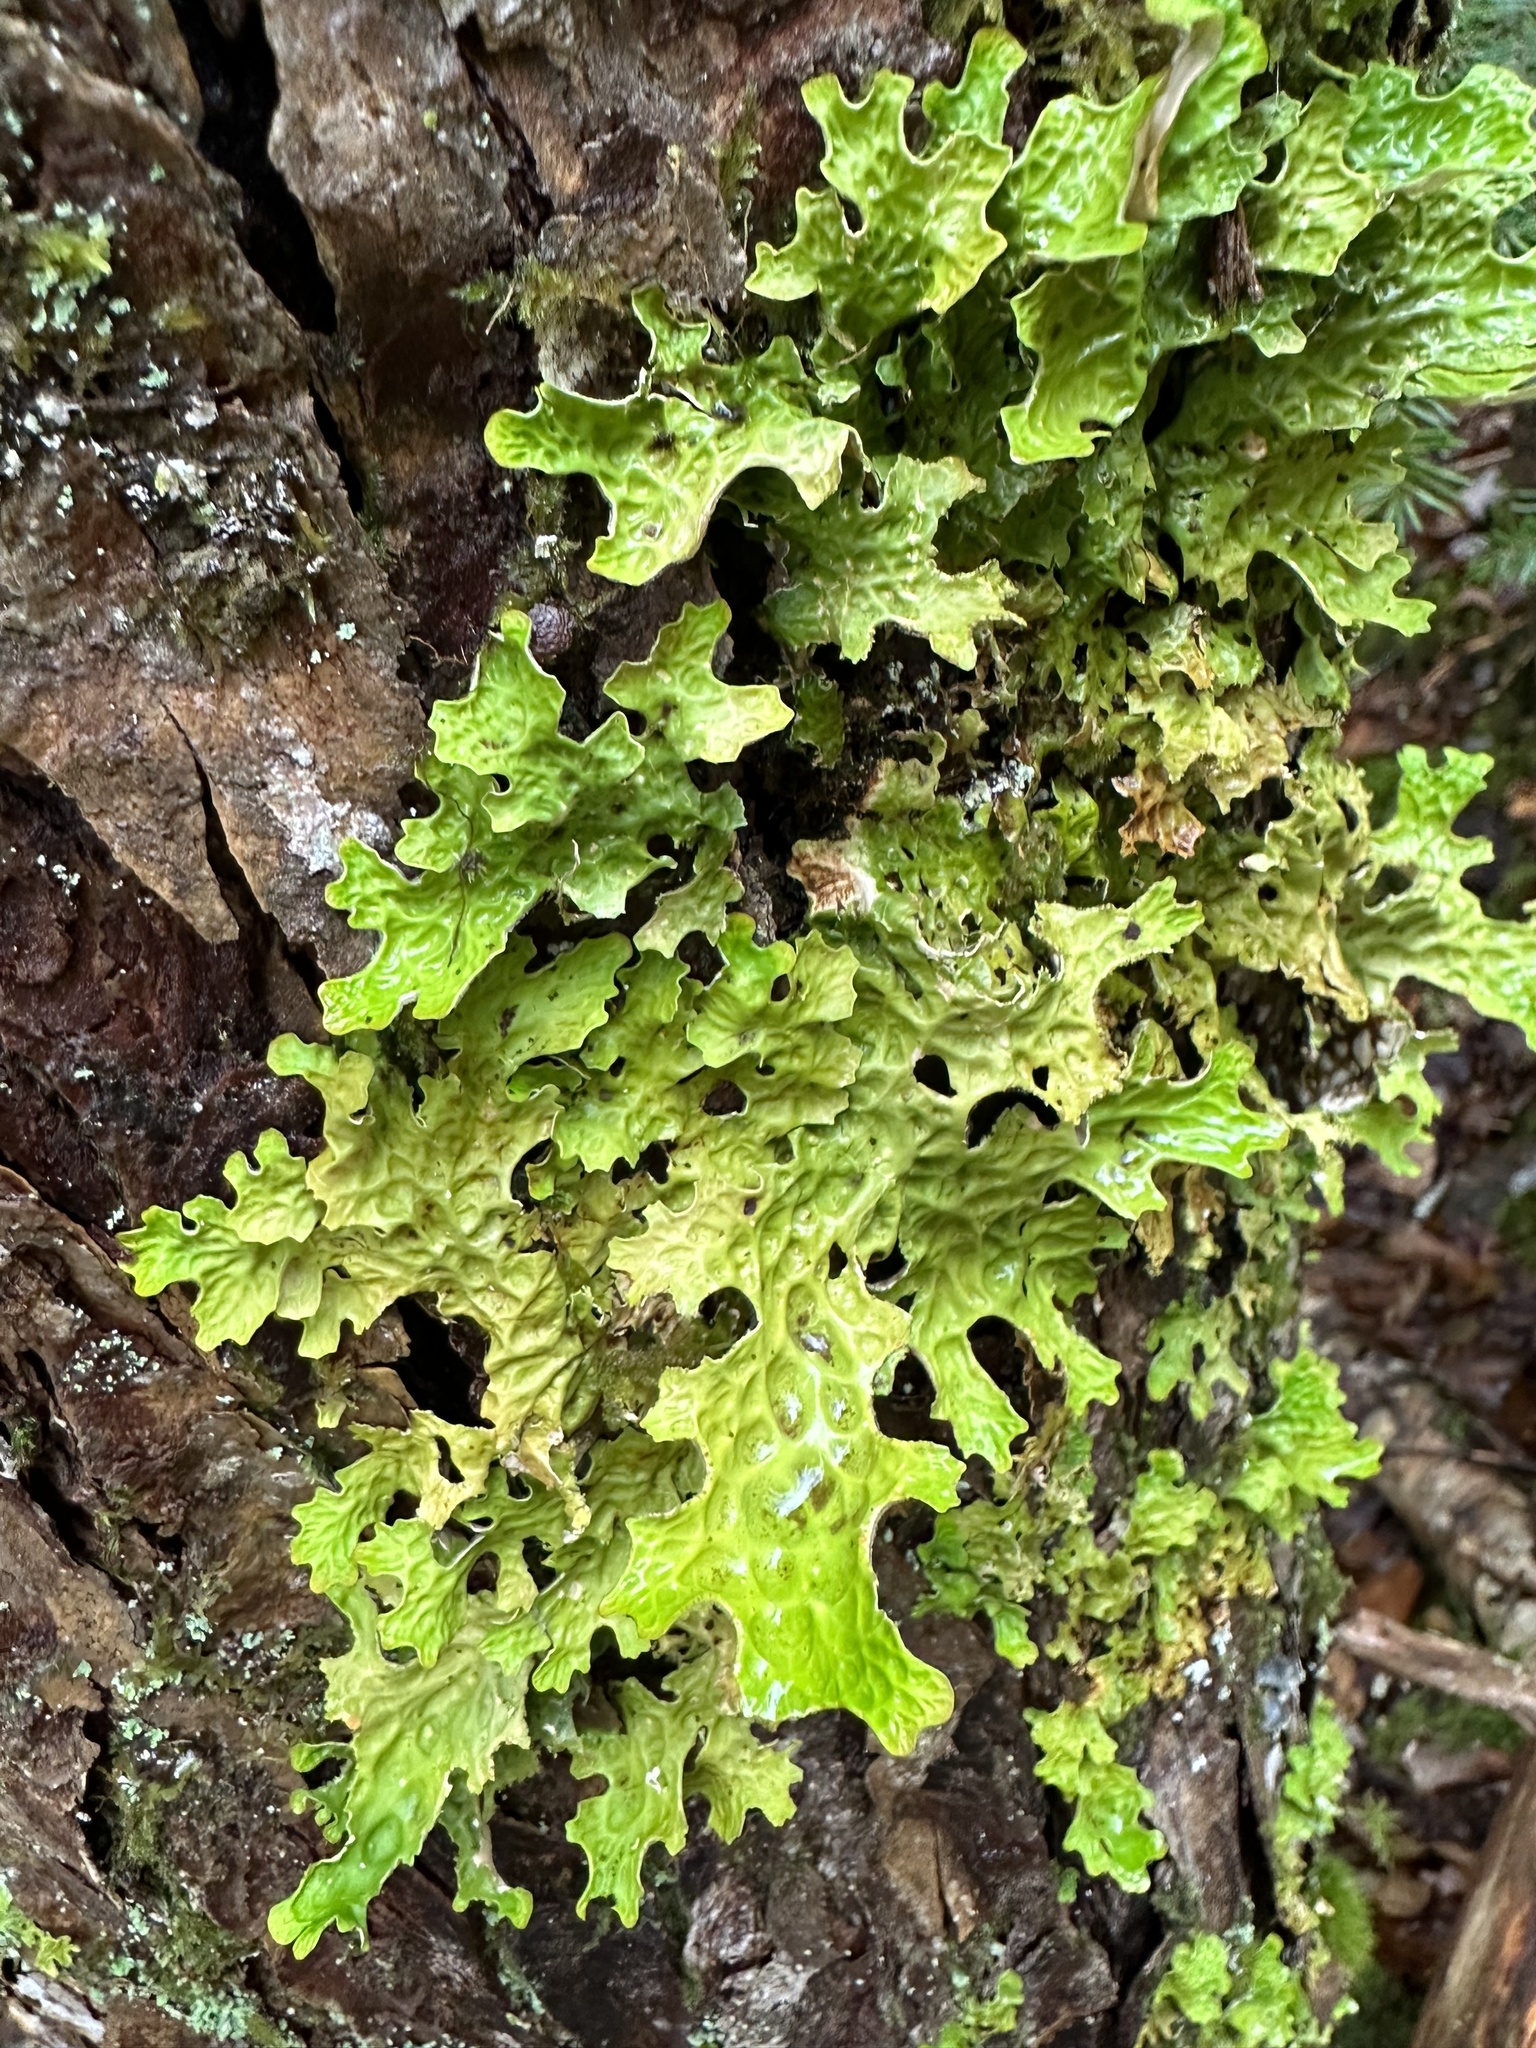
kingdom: Fungi
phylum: Ascomycota
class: Lecanoromycetes
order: Peltigerales
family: Lobariaceae
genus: Lobaria
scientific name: Lobaria pulmonaria
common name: Lungwort
